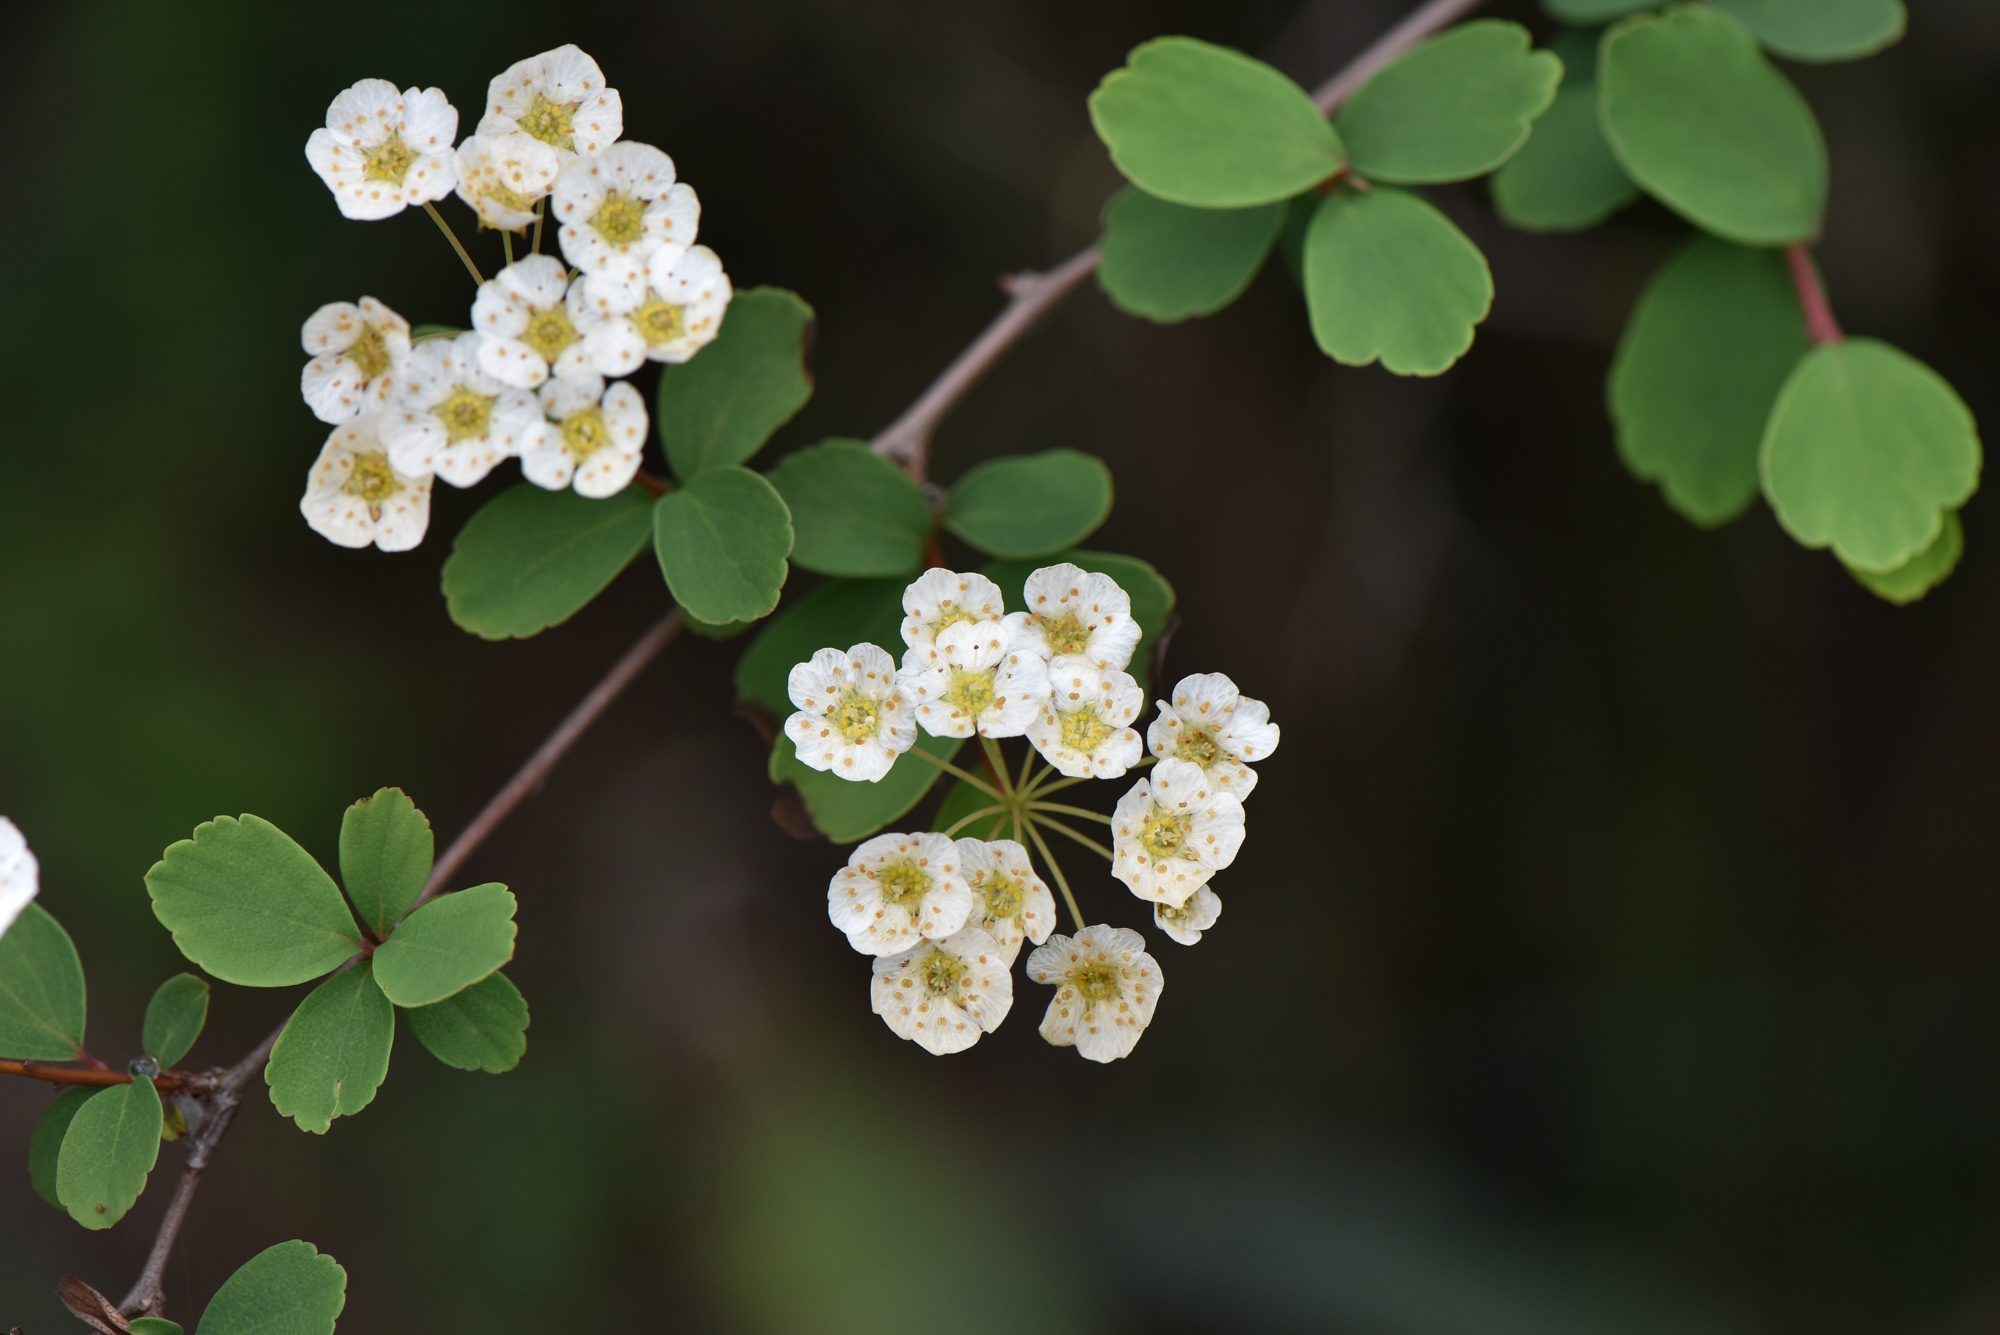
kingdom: Plantae
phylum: Tracheophyta
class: Magnoliopsida
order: Rosales
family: Rosaceae
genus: Spiraea
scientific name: Spiraea blumei
